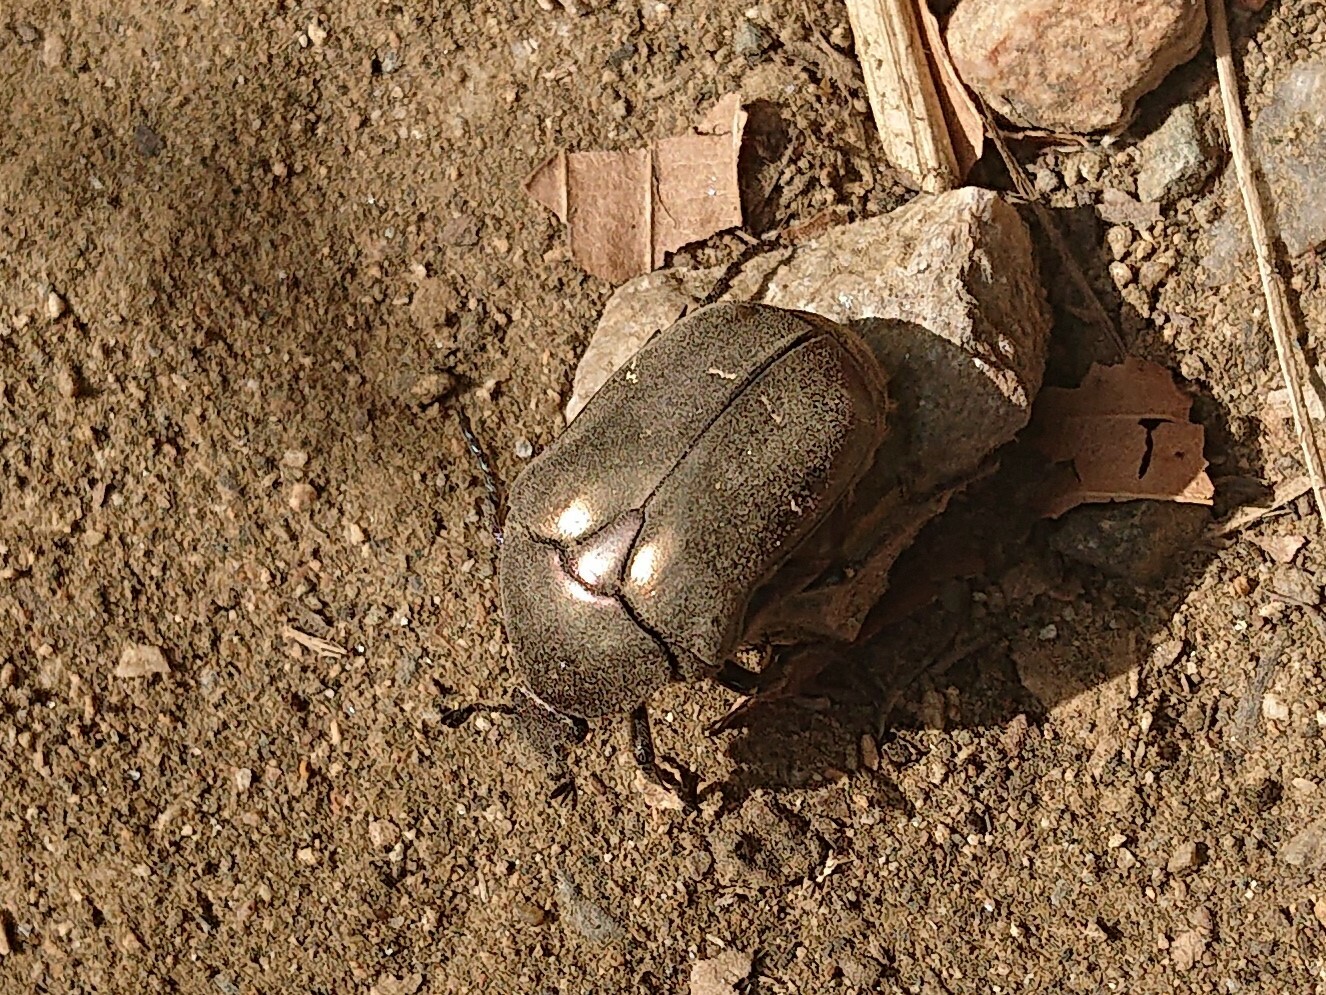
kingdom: Animalia
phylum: Arthropoda
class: Insecta
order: Coleoptera
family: Scarabaeidae
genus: Protaetia
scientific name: Protaetia cuprea
